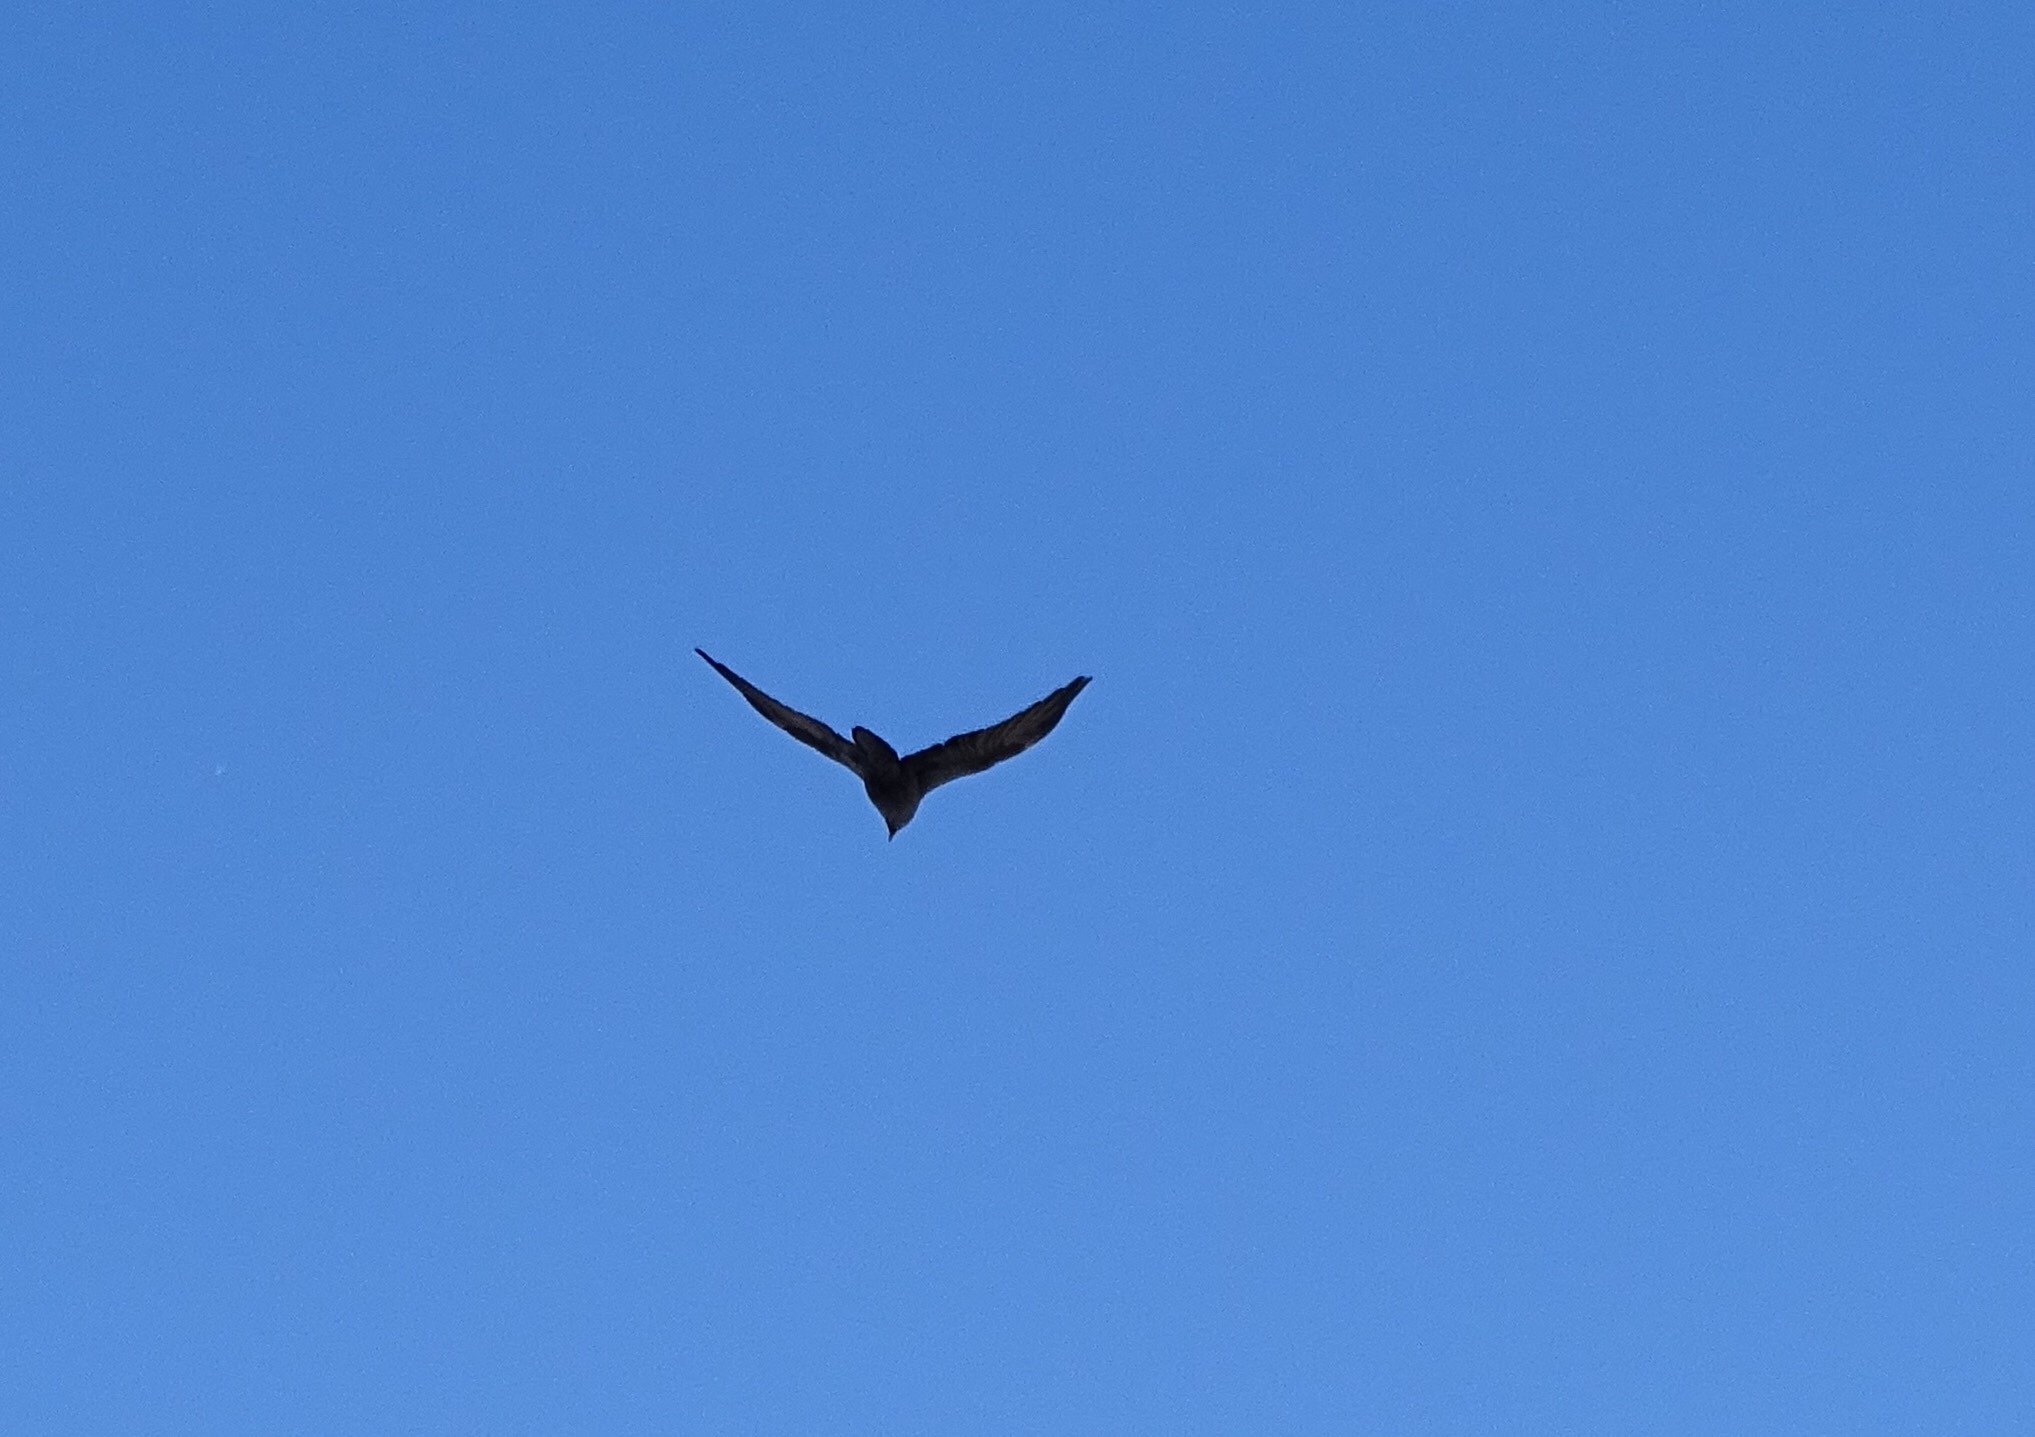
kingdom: Animalia
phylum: Chordata
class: Aves
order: Passeriformes
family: Corvidae
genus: Corvus
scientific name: Corvus corax
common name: Common raven
